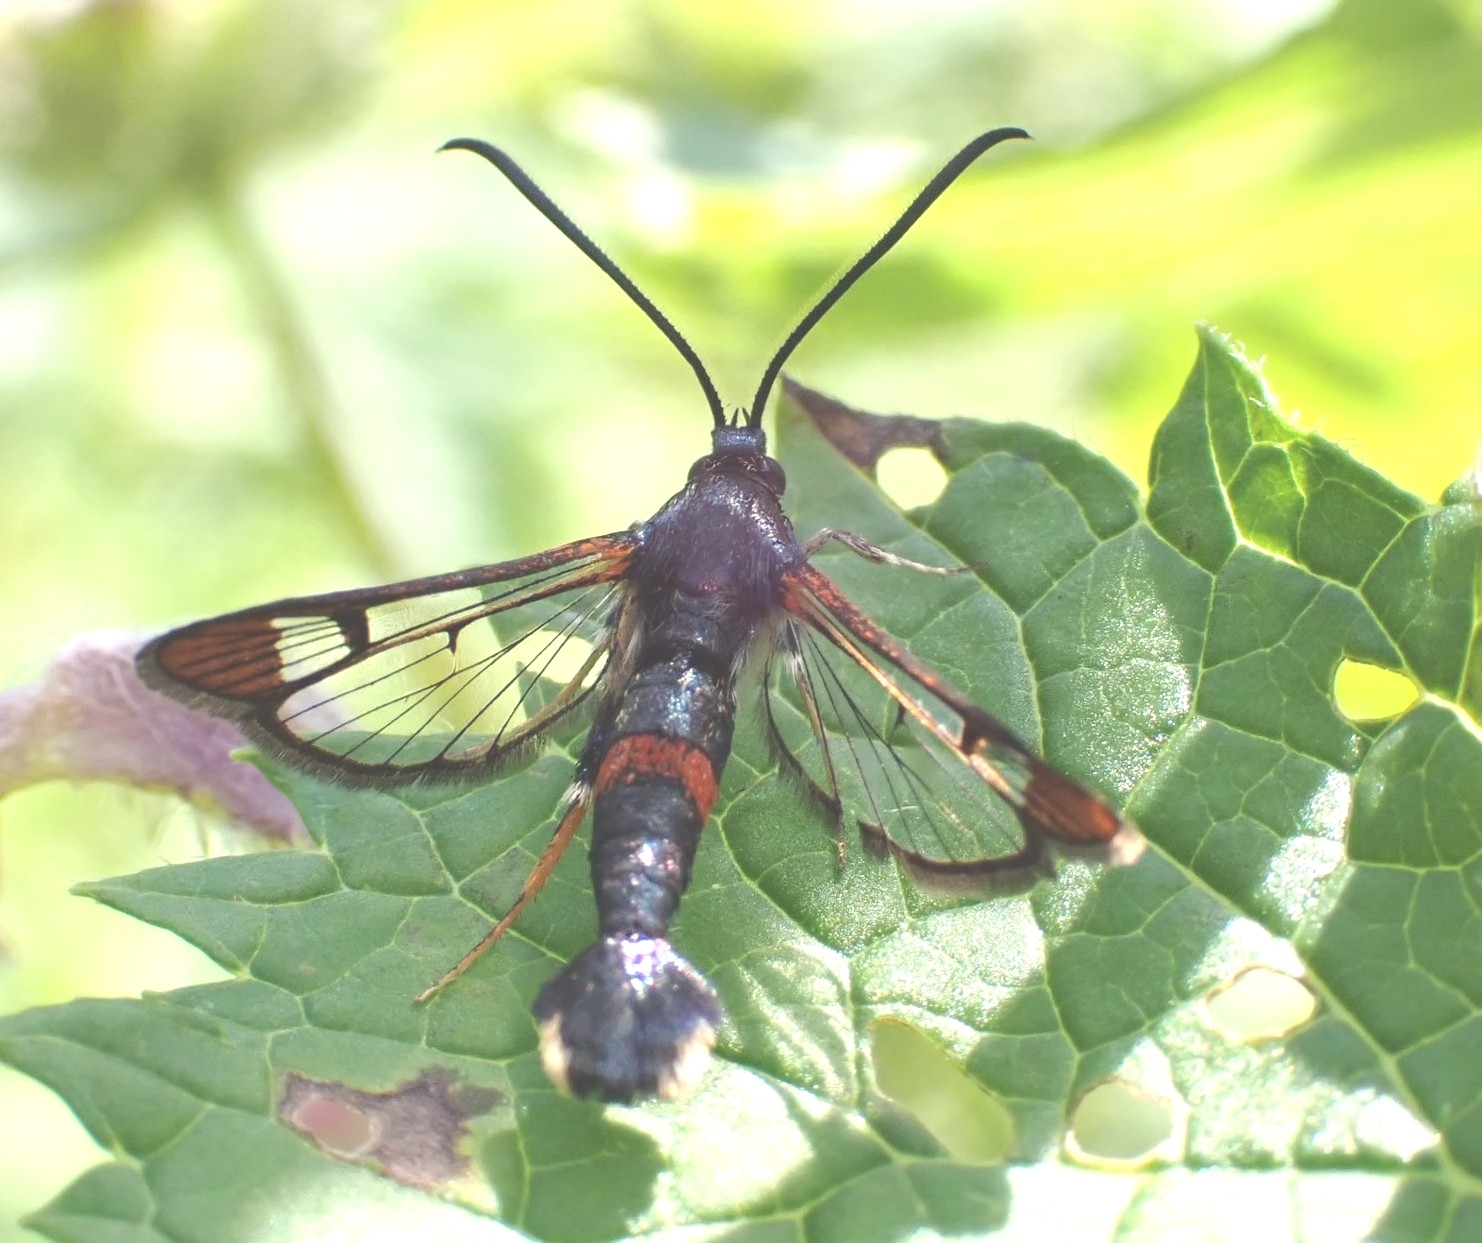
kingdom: Animalia
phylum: Arthropoda
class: Insecta
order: Lepidoptera
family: Sesiidae
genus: Synanthedon
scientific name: Synanthedon formicaeformis
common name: Red-tipped clearwing
